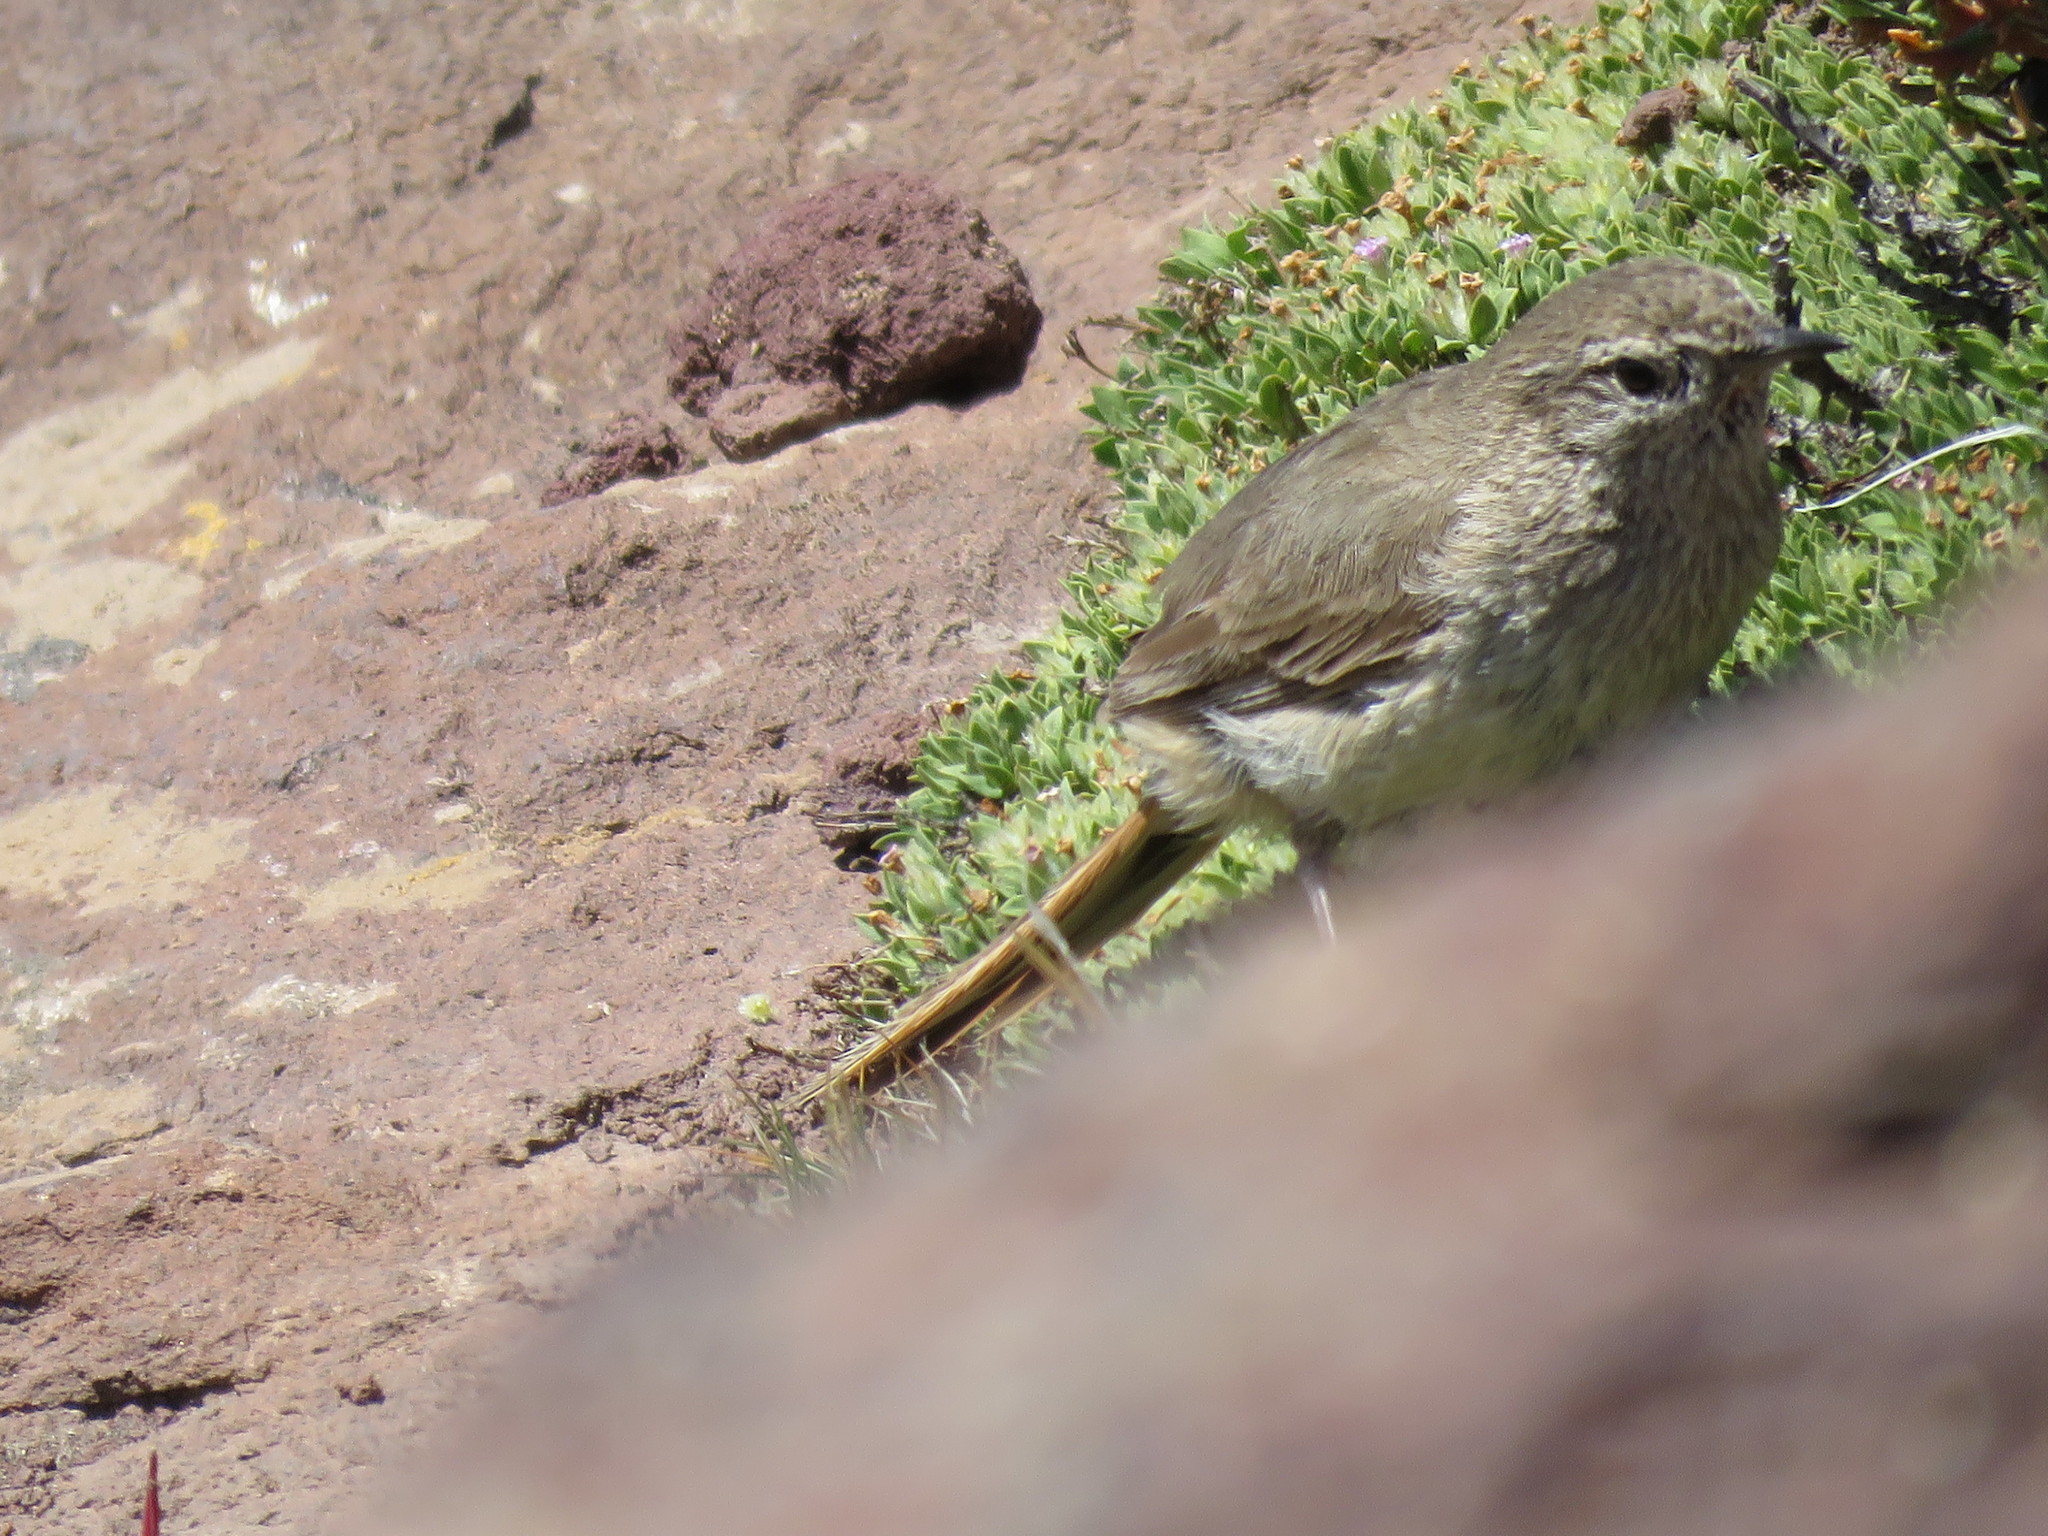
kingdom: Animalia
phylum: Chordata
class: Aves
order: Passeriformes
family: Furnariidae
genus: Asthenes
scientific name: Asthenes pyrrholeuca
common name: Sharp-billed canastero
